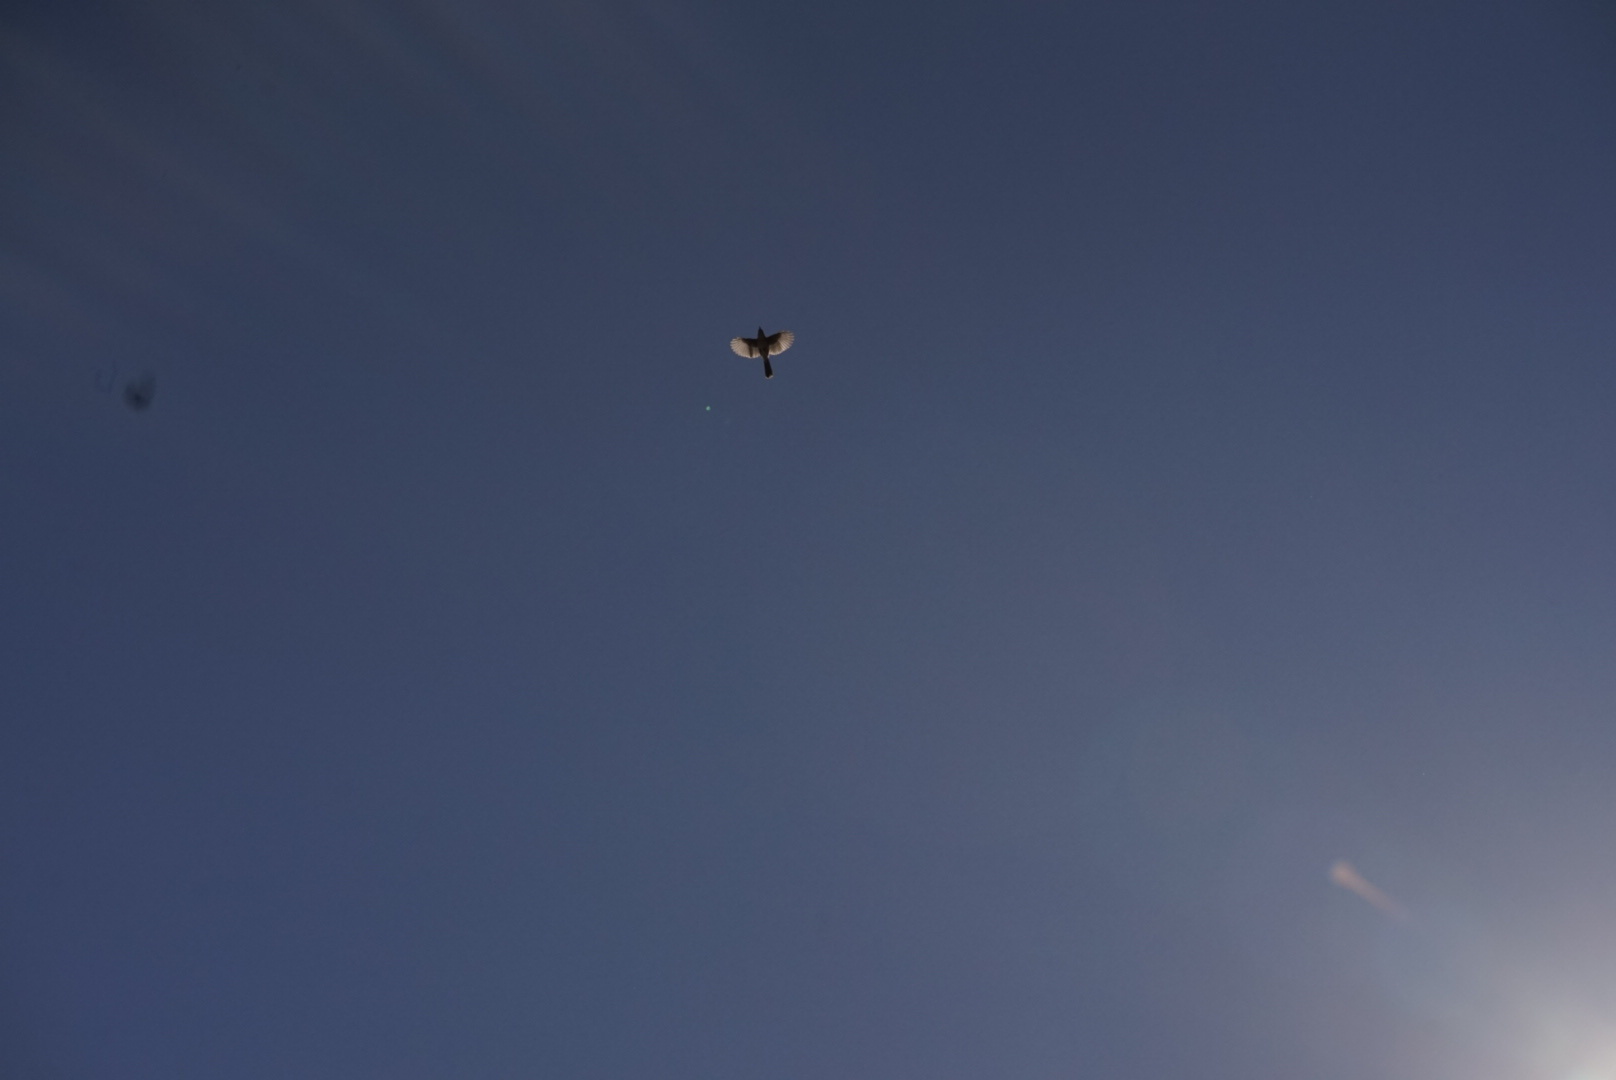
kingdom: Animalia
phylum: Chordata
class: Aves
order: Passeriformes
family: Corvidae
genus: Aphelocoma
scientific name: Aphelocoma californica
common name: California scrub-jay
